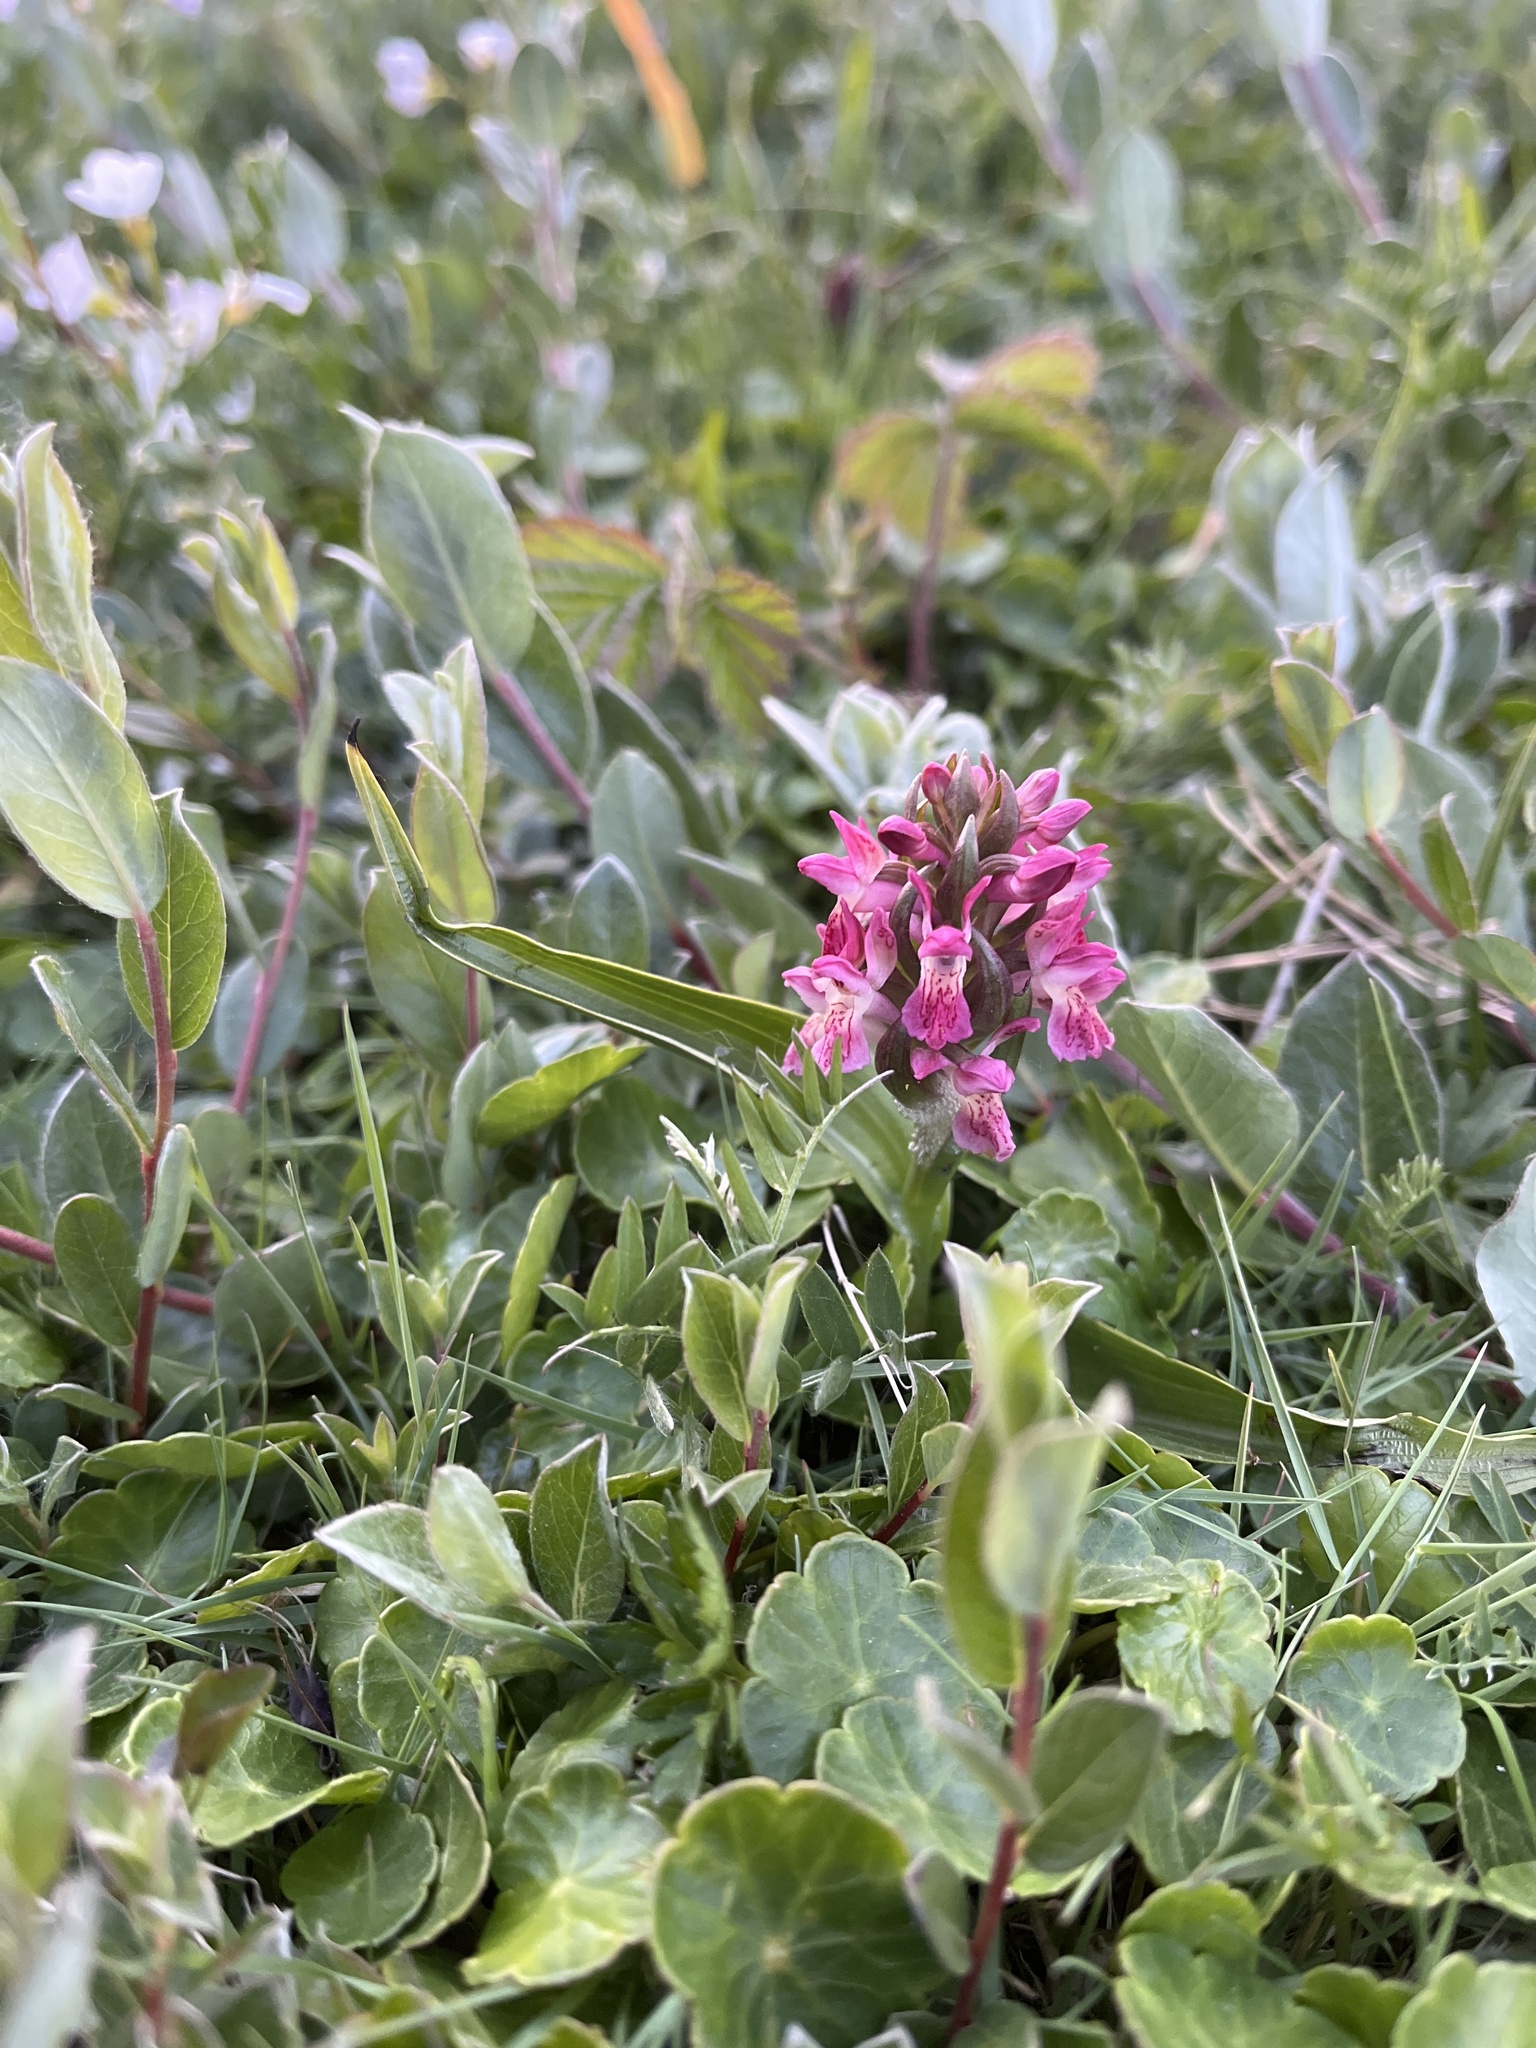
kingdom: Plantae
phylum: Tracheophyta
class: Liliopsida
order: Asparagales
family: Orchidaceae
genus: Dactylorhiza
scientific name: Dactylorhiza incarnata
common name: Early marsh-orchid
